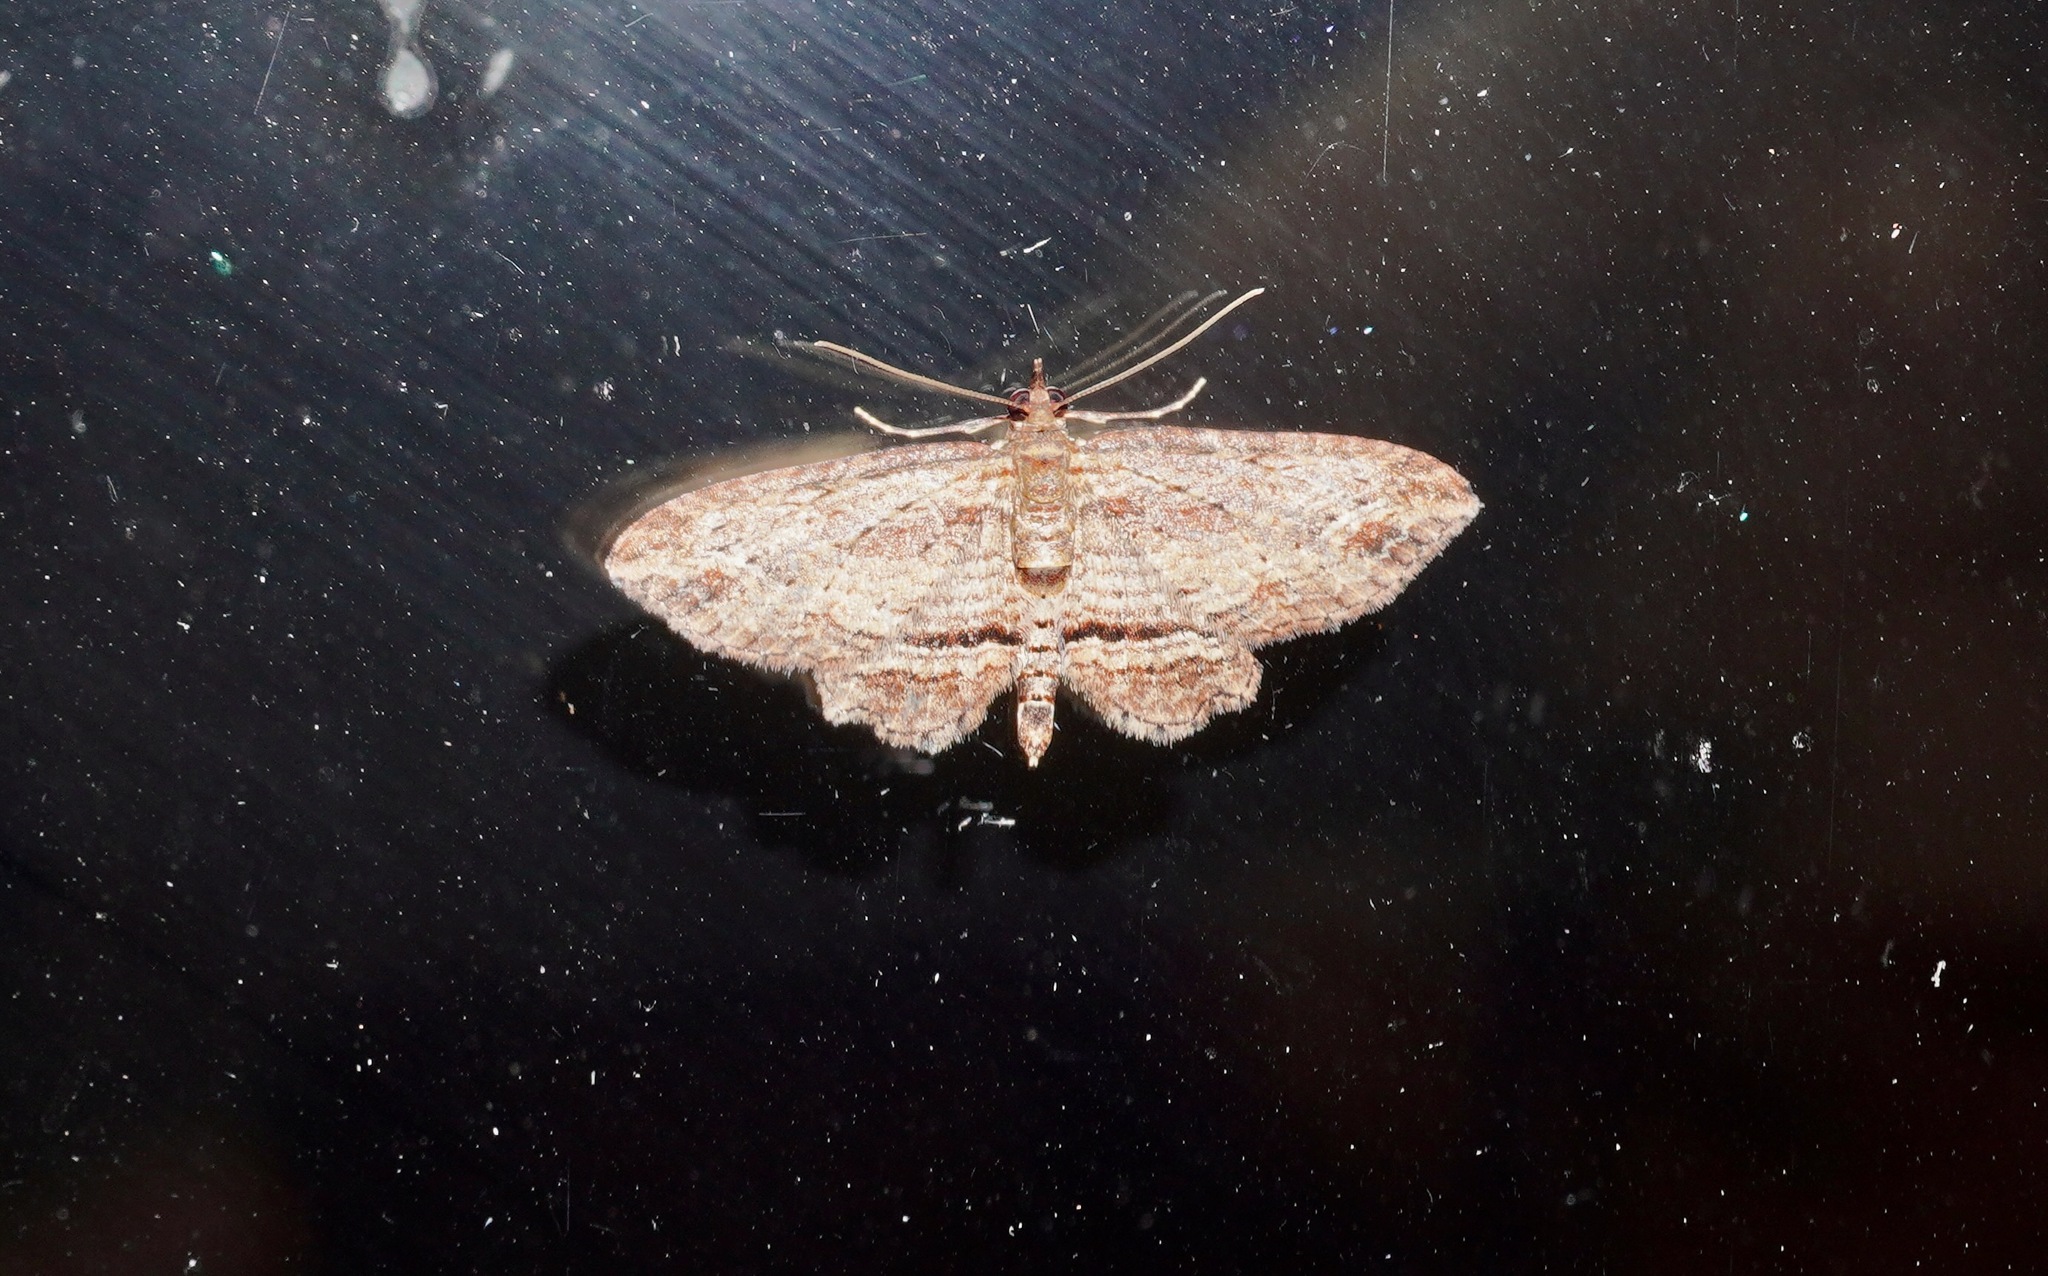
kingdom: Animalia
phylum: Arthropoda
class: Insecta
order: Lepidoptera
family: Geometridae
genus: Chloroclystis
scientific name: Chloroclystis filata
